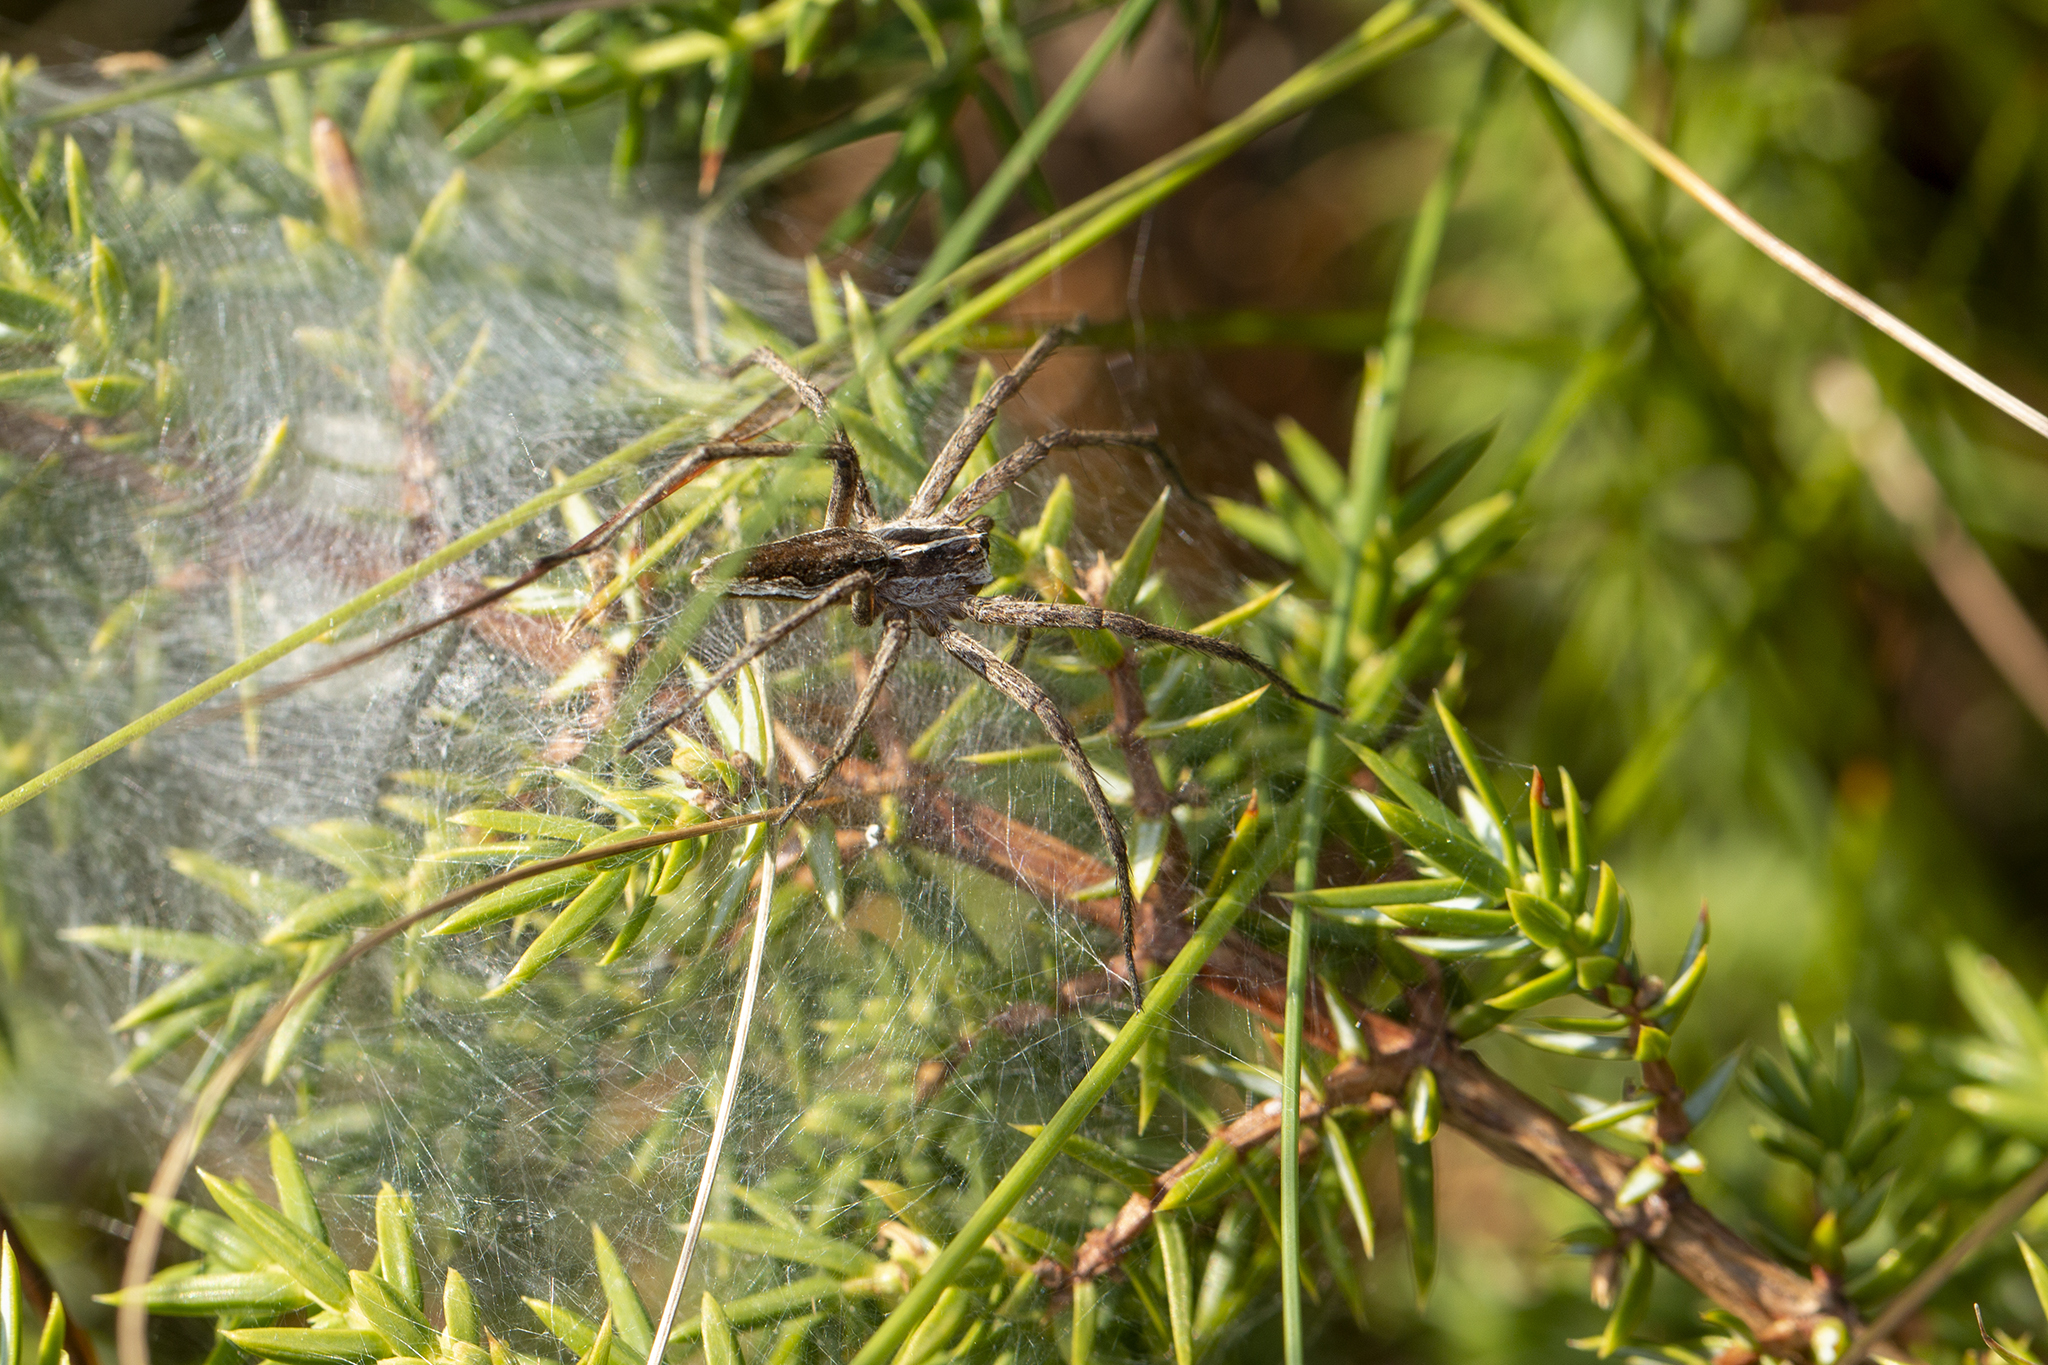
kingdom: Animalia
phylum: Arthropoda
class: Arachnida
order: Araneae
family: Pisauridae
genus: Pisaura
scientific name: Pisaura mirabilis
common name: Tent spider
